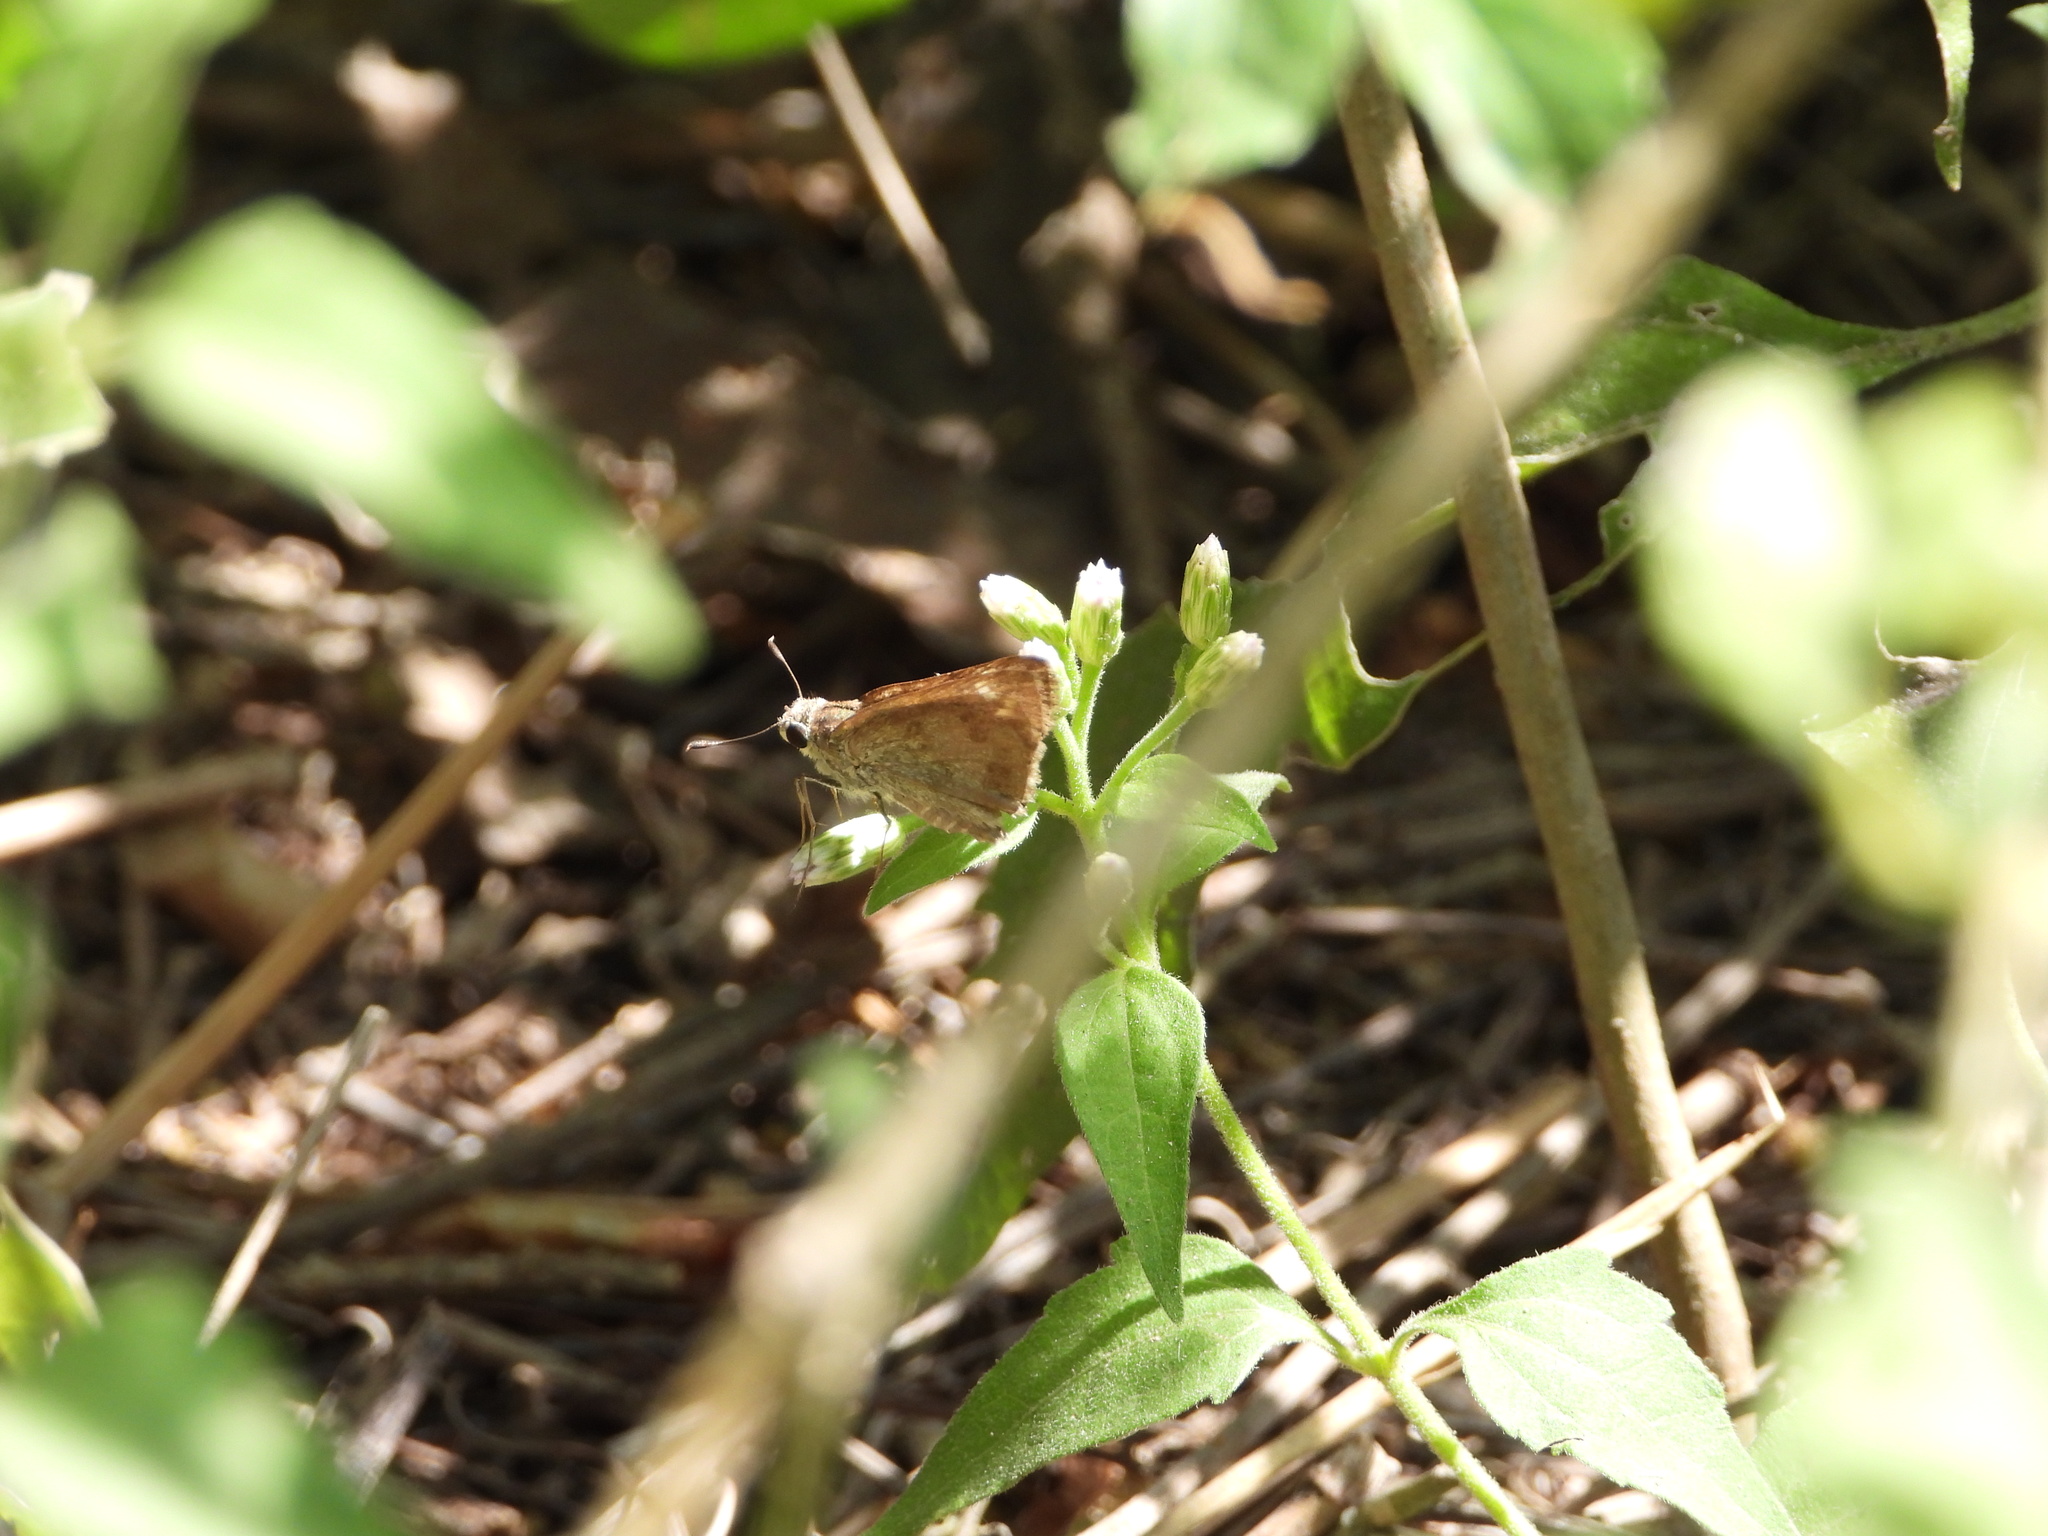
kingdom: Animalia
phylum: Arthropoda
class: Insecta
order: Lepidoptera
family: Hesperiidae
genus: Polites
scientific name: Polites vibex
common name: Whirlabout
